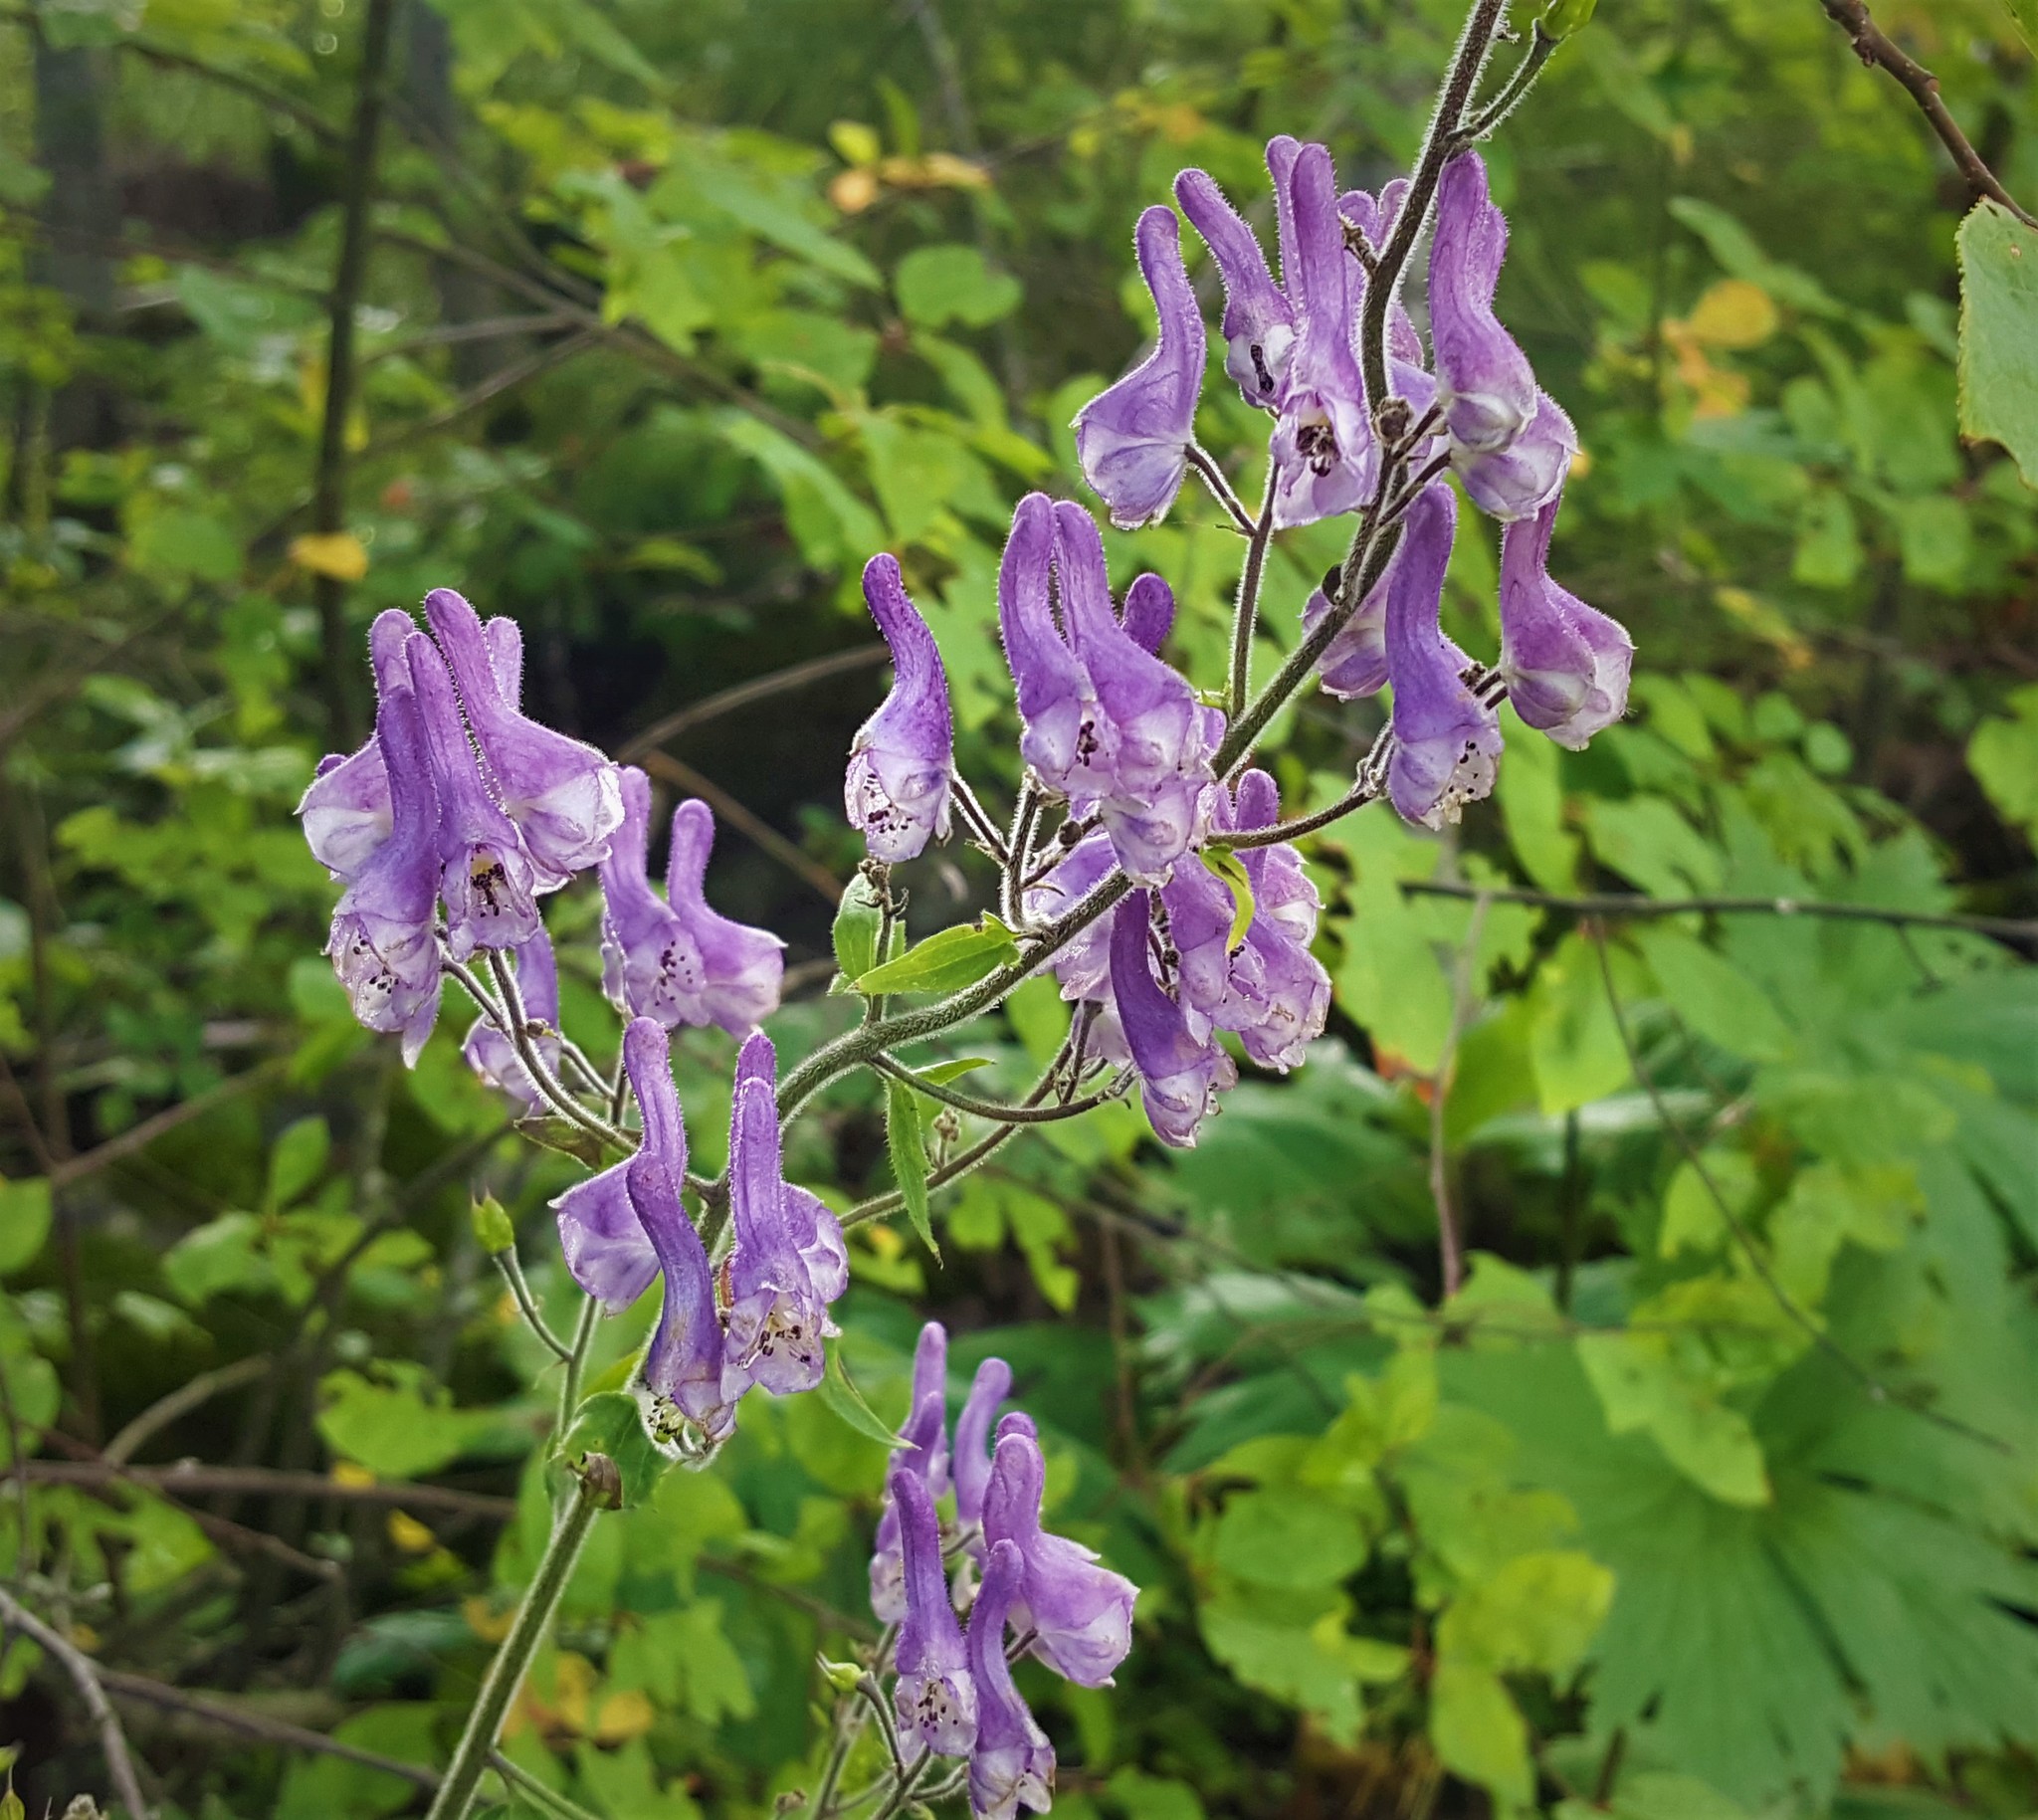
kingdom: Plantae
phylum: Tracheophyta
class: Magnoliopsida
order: Ranunculales
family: Ranunculaceae
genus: Aconitum
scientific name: Aconitum septentrionale
